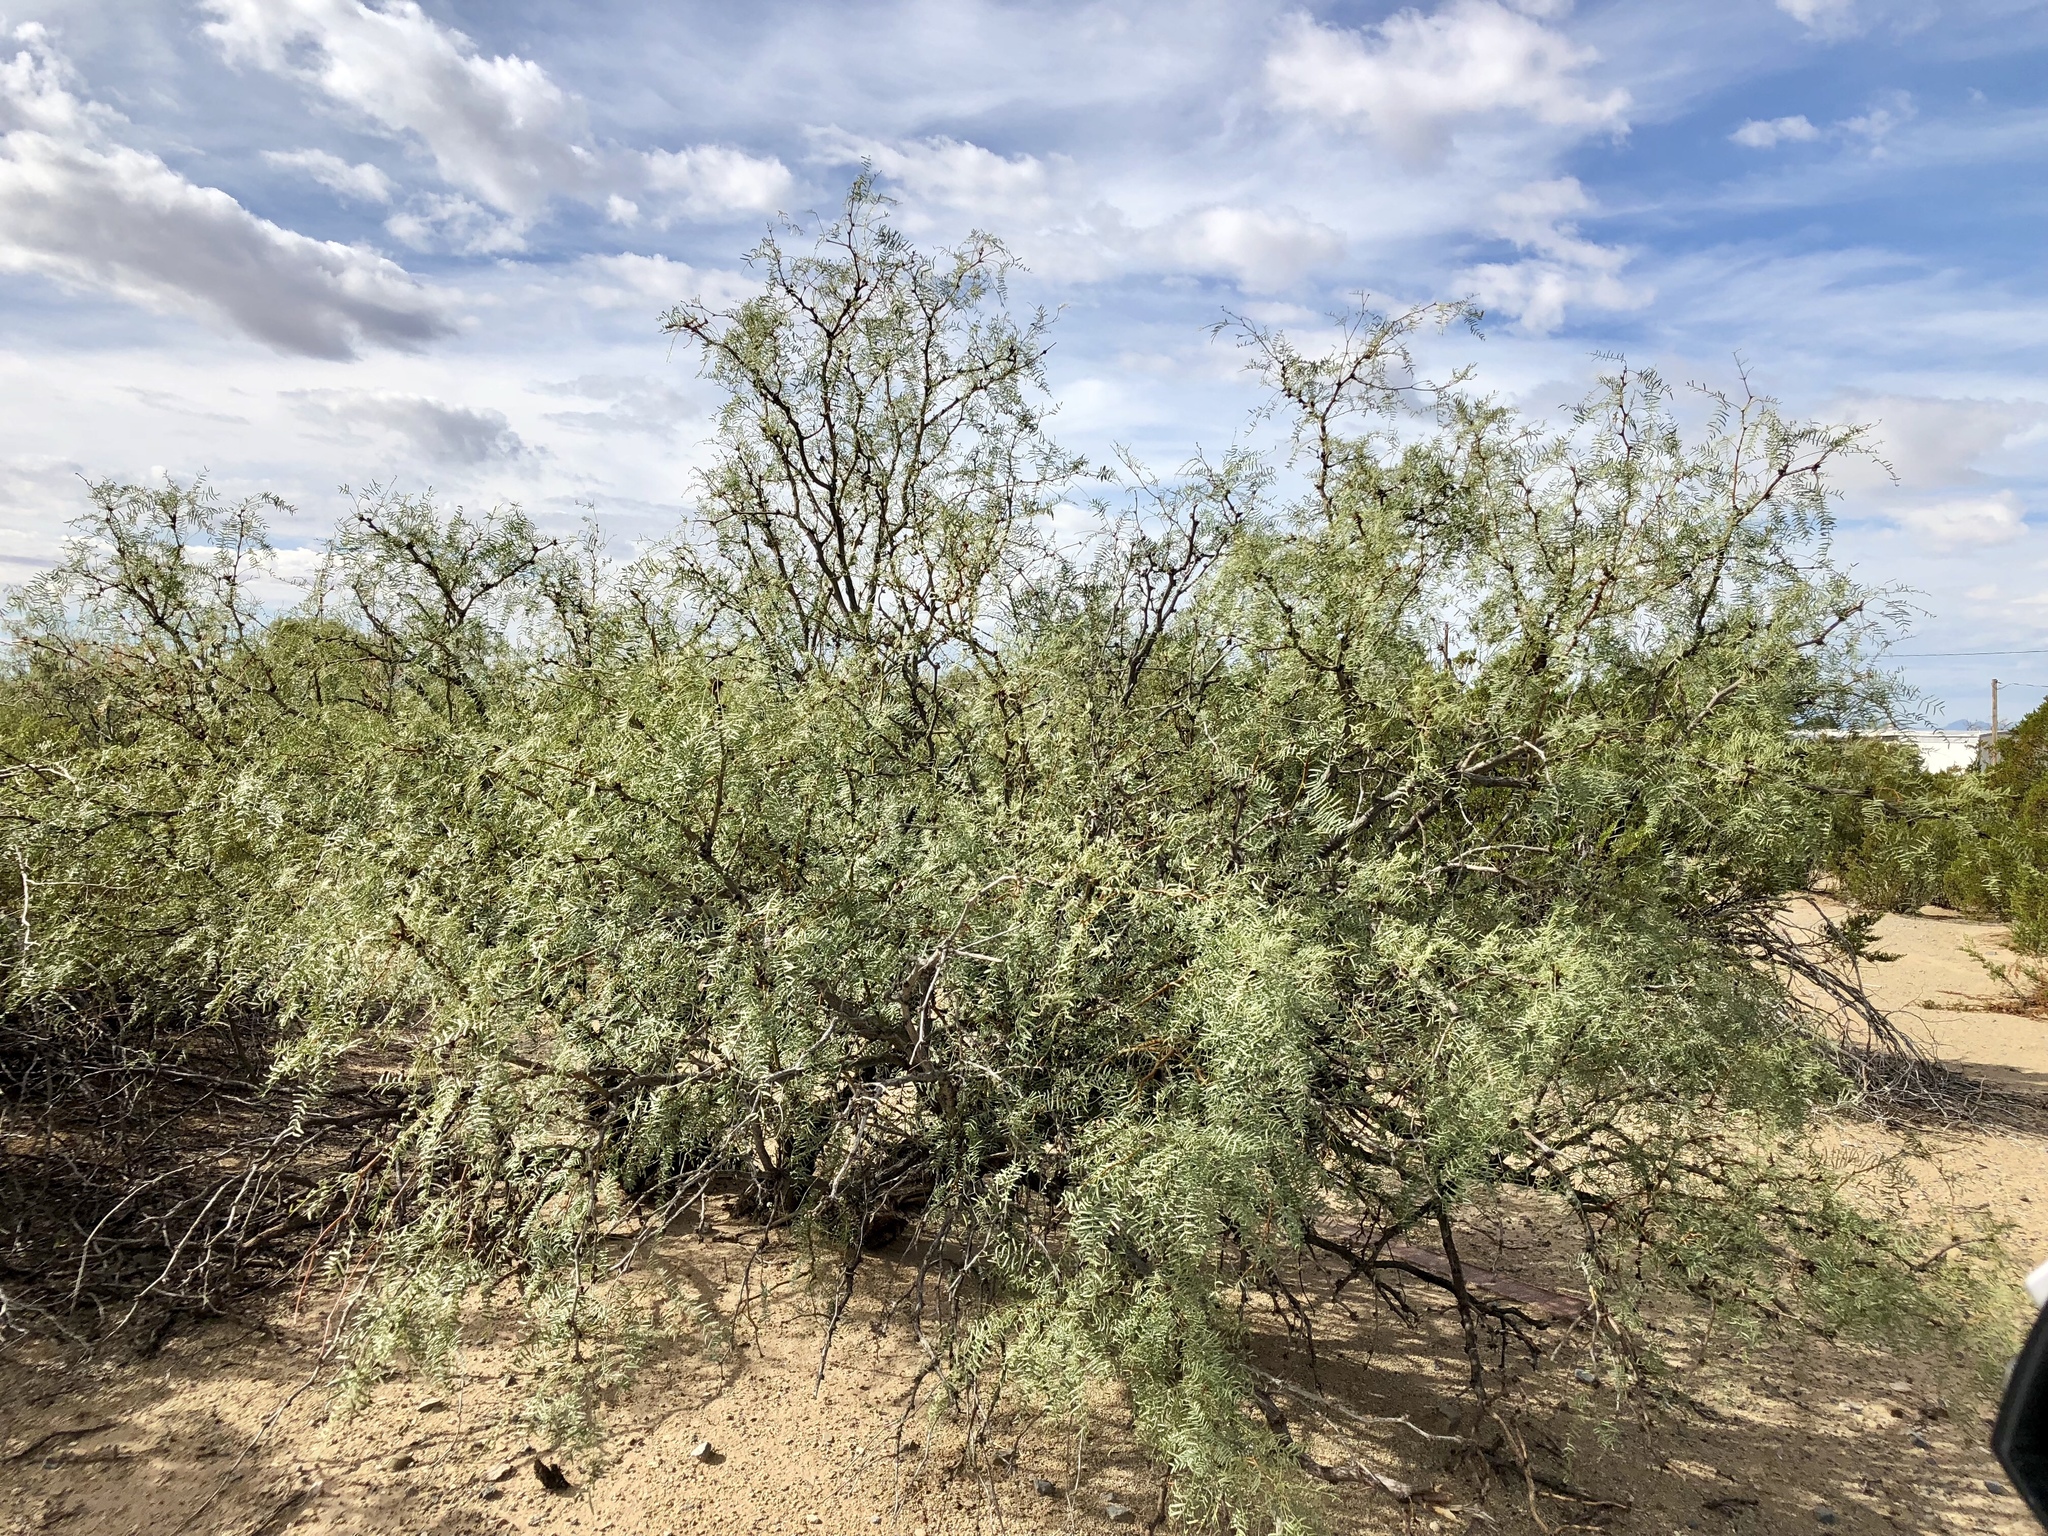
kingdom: Plantae
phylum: Tracheophyta
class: Magnoliopsida
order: Fabales
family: Fabaceae
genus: Prosopis
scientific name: Prosopis glandulosa
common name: Honey mesquite
